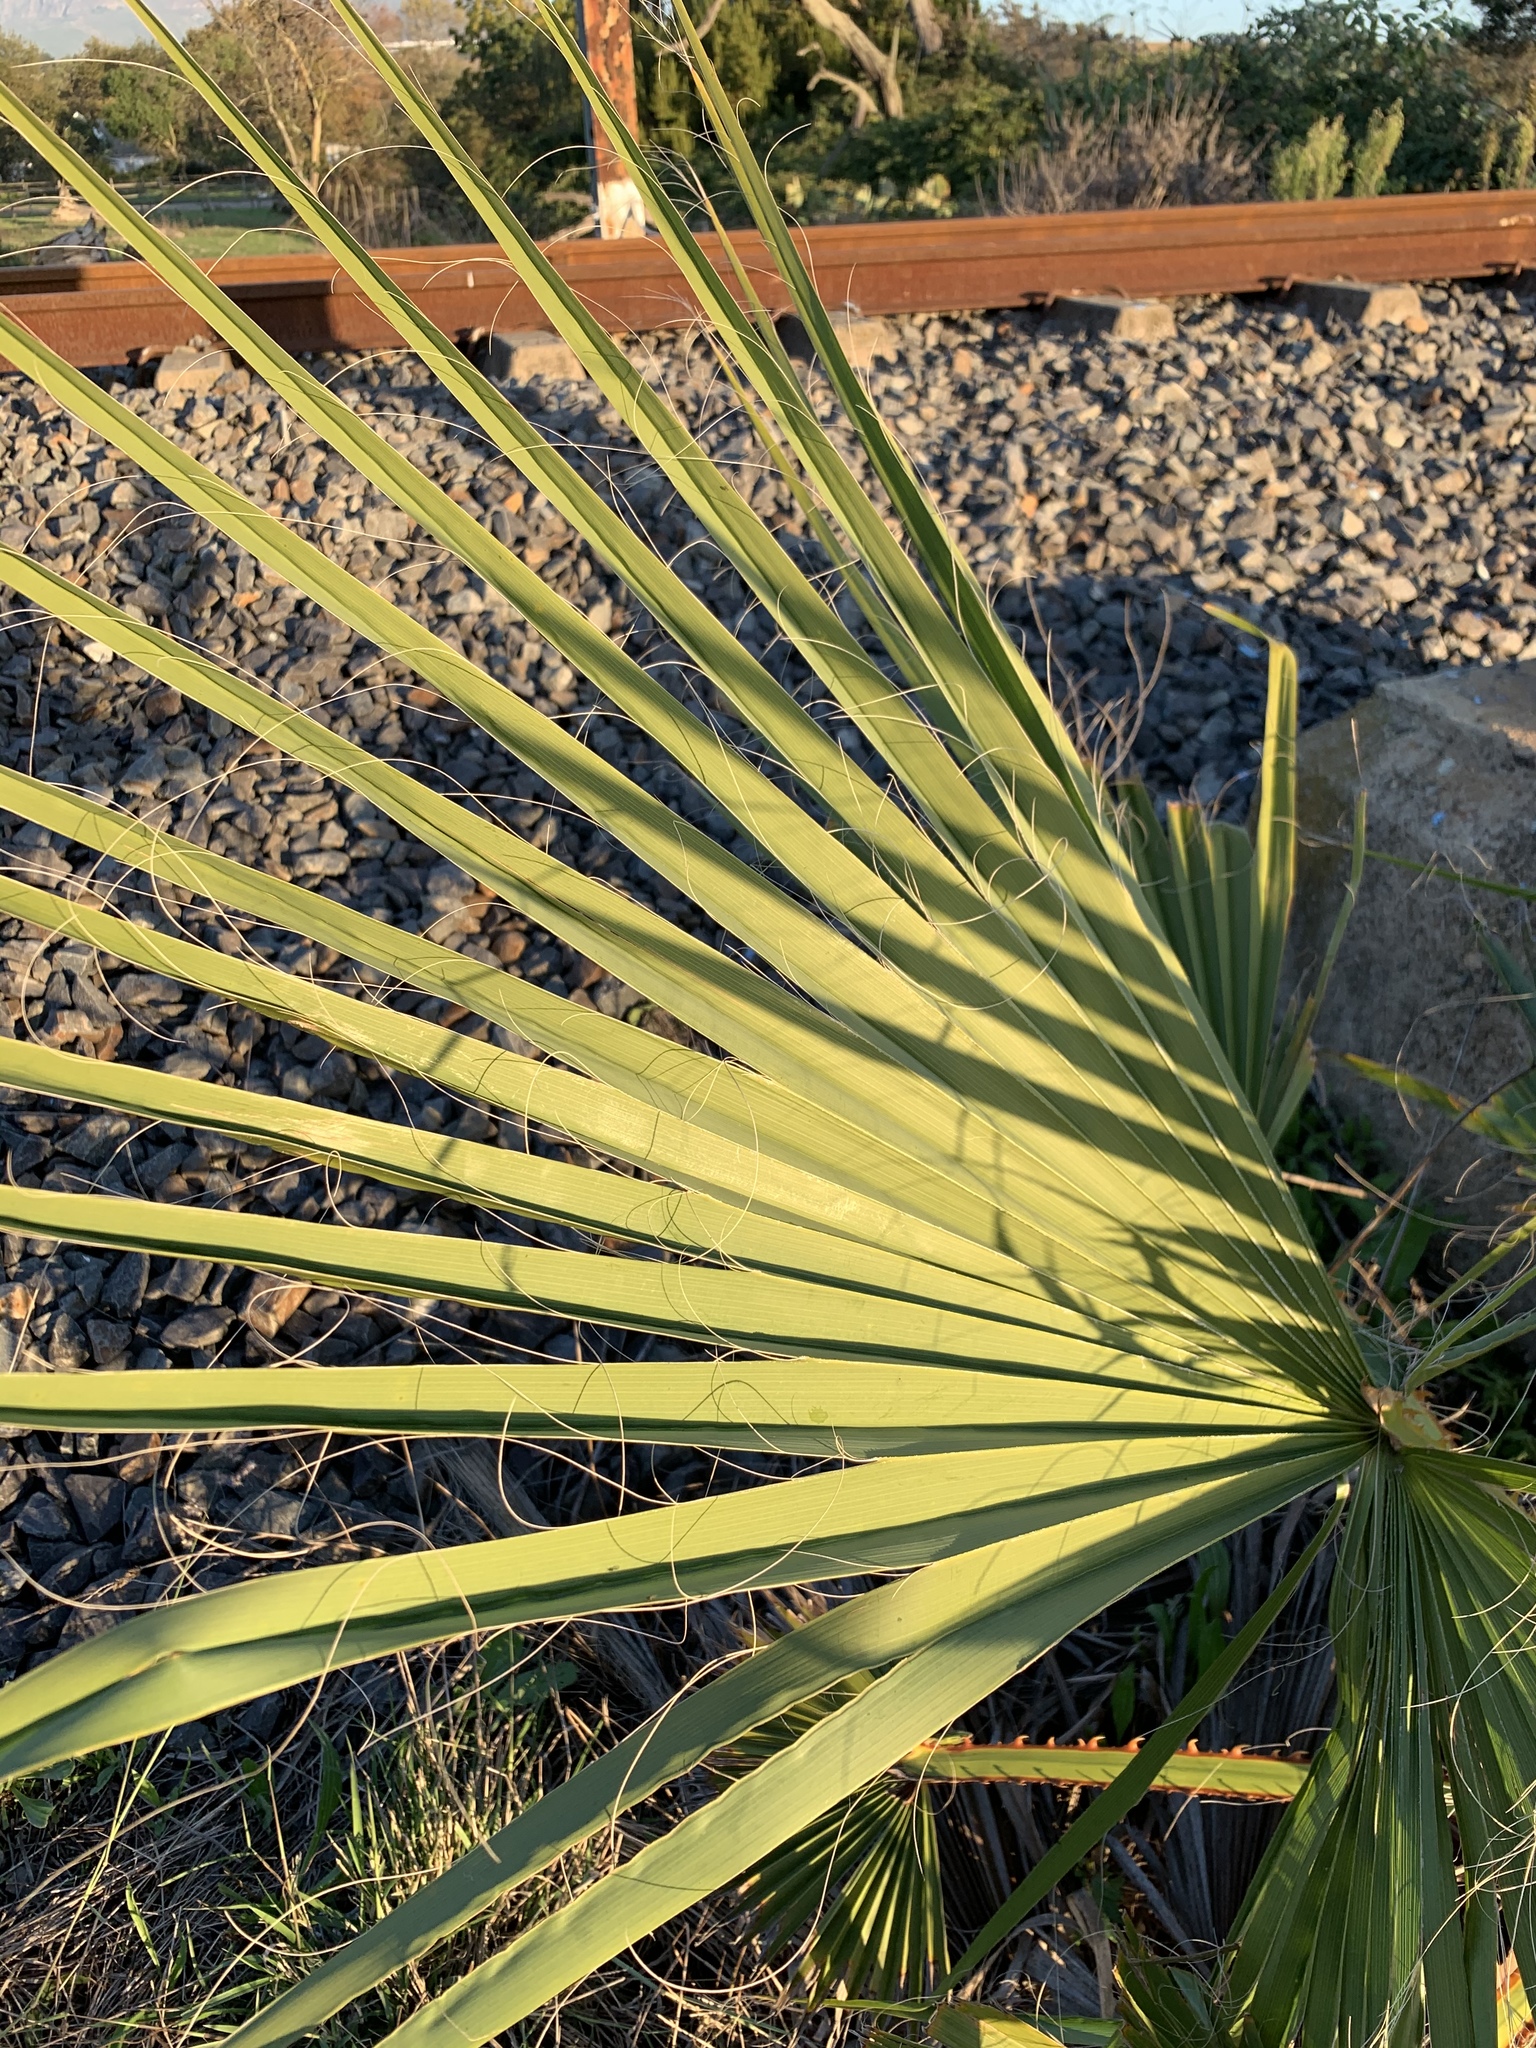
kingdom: Plantae
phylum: Tracheophyta
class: Liliopsida
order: Arecales
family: Arecaceae
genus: Washingtonia
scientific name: Washingtonia robusta
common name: Mexican fan palm
